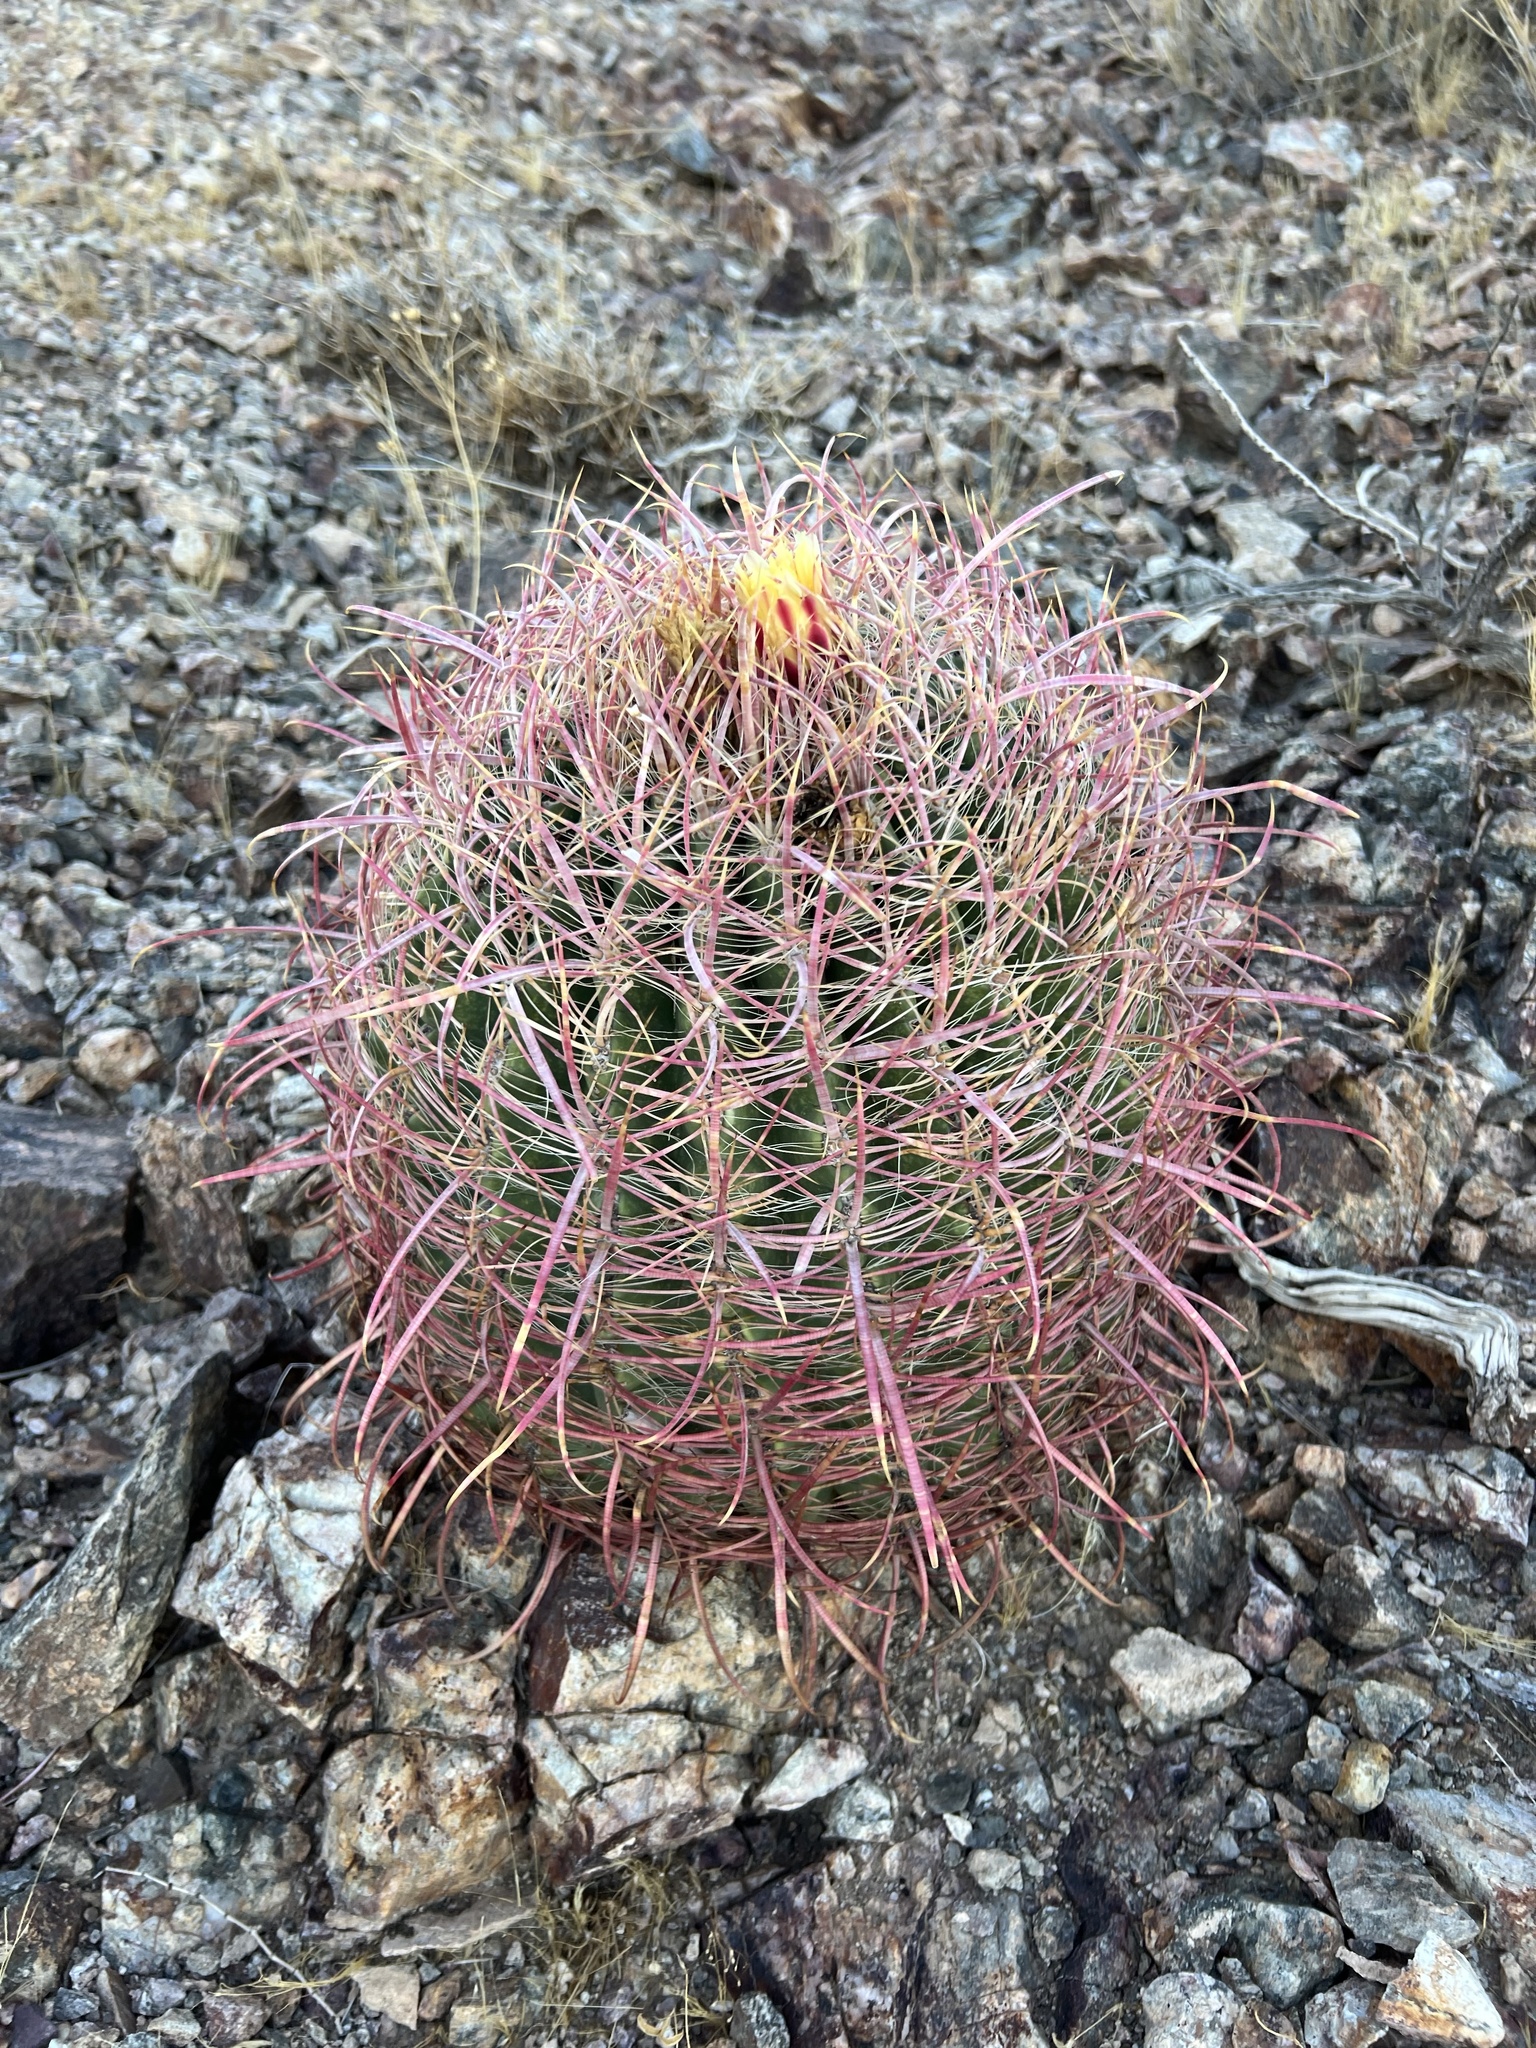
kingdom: Plantae
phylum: Tracheophyta
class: Magnoliopsida
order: Caryophyllales
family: Cactaceae
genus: Ferocactus
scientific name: Ferocactus cylindraceus
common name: California barrel cactus
